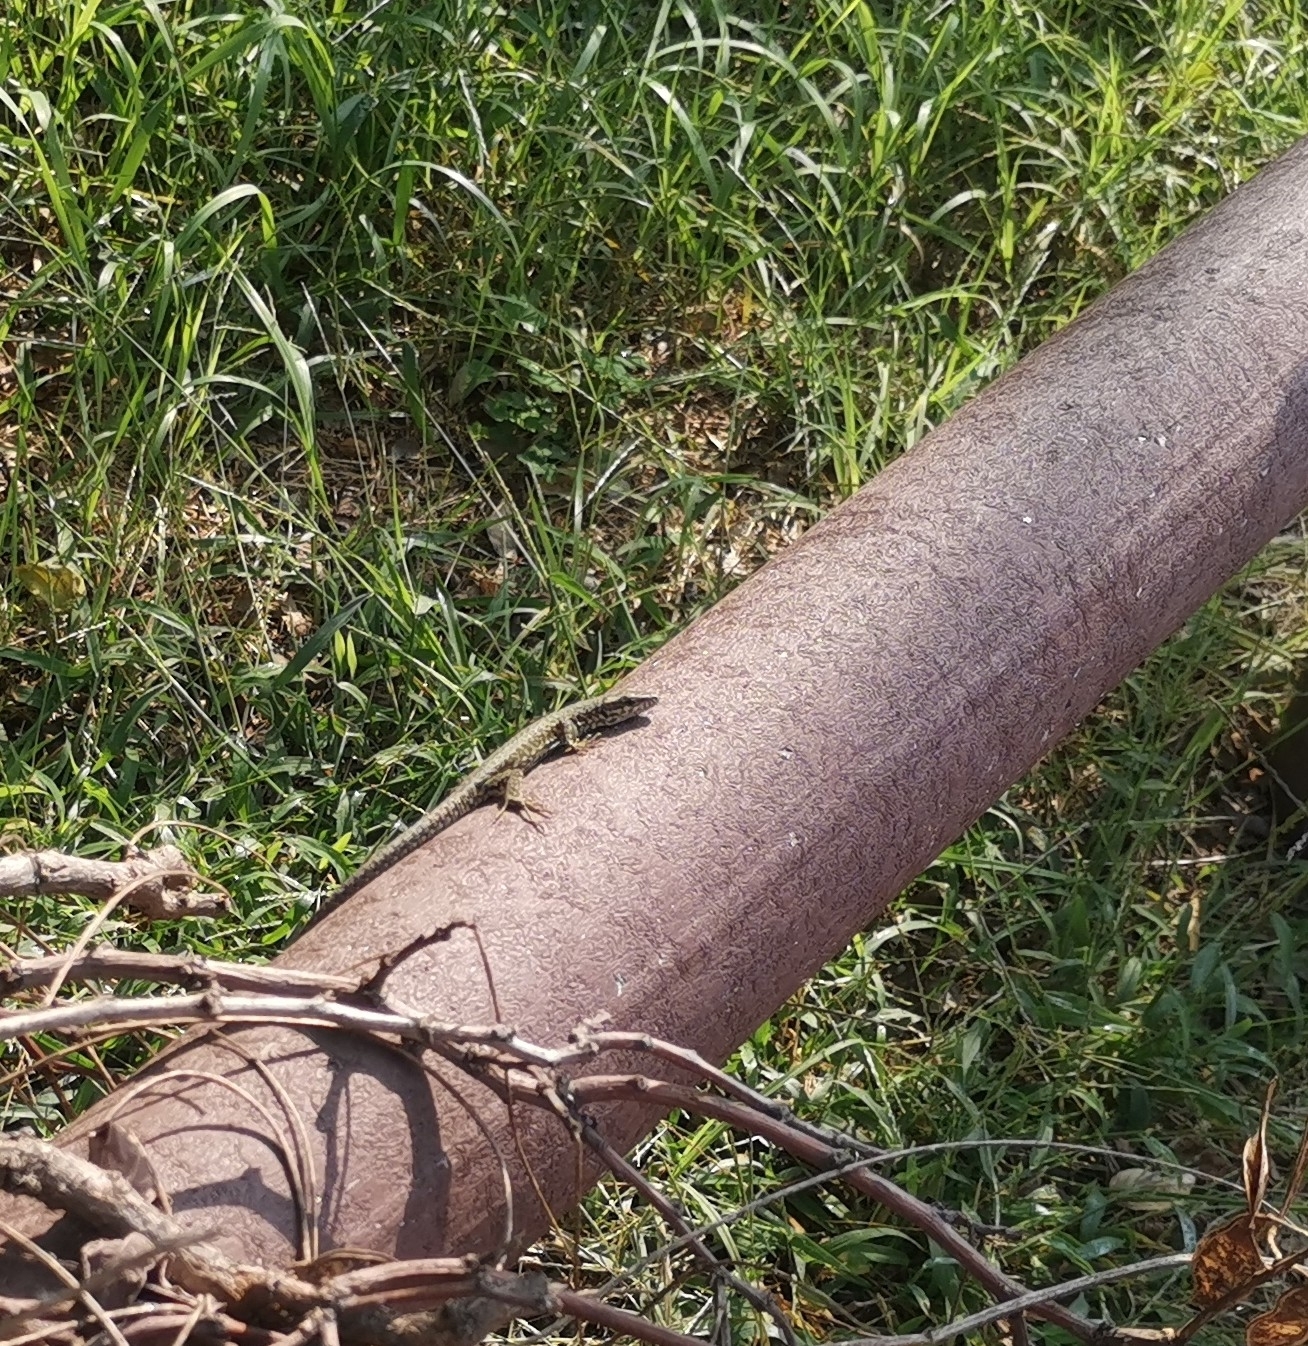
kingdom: Animalia
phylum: Chordata
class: Squamata
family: Lacertidae
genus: Podarcis
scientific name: Podarcis muralis
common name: Common wall lizard
